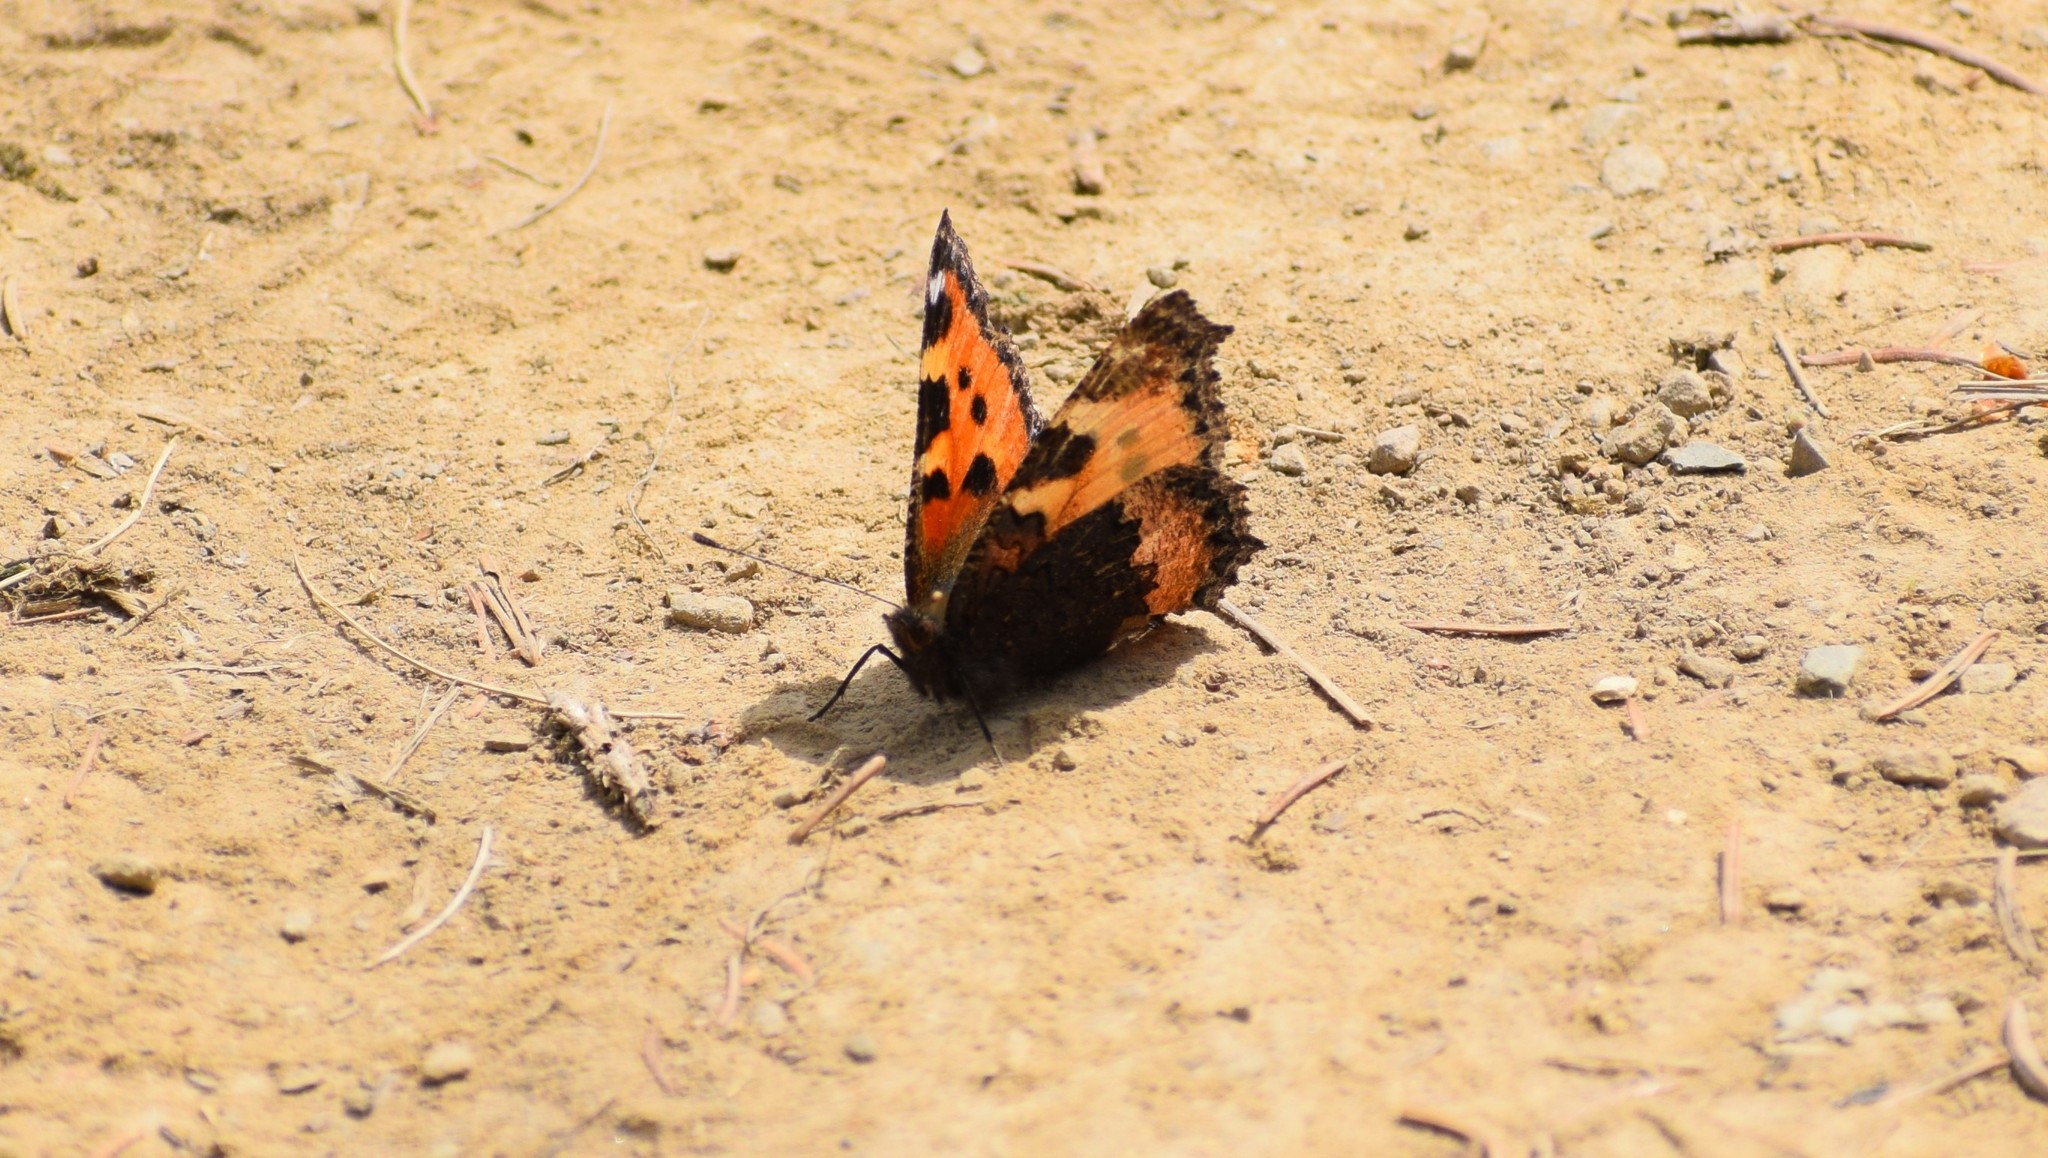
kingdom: Animalia
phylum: Arthropoda
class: Insecta
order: Lepidoptera
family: Nymphalidae
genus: Aglais
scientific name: Aglais urticae
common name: Small tortoiseshell
